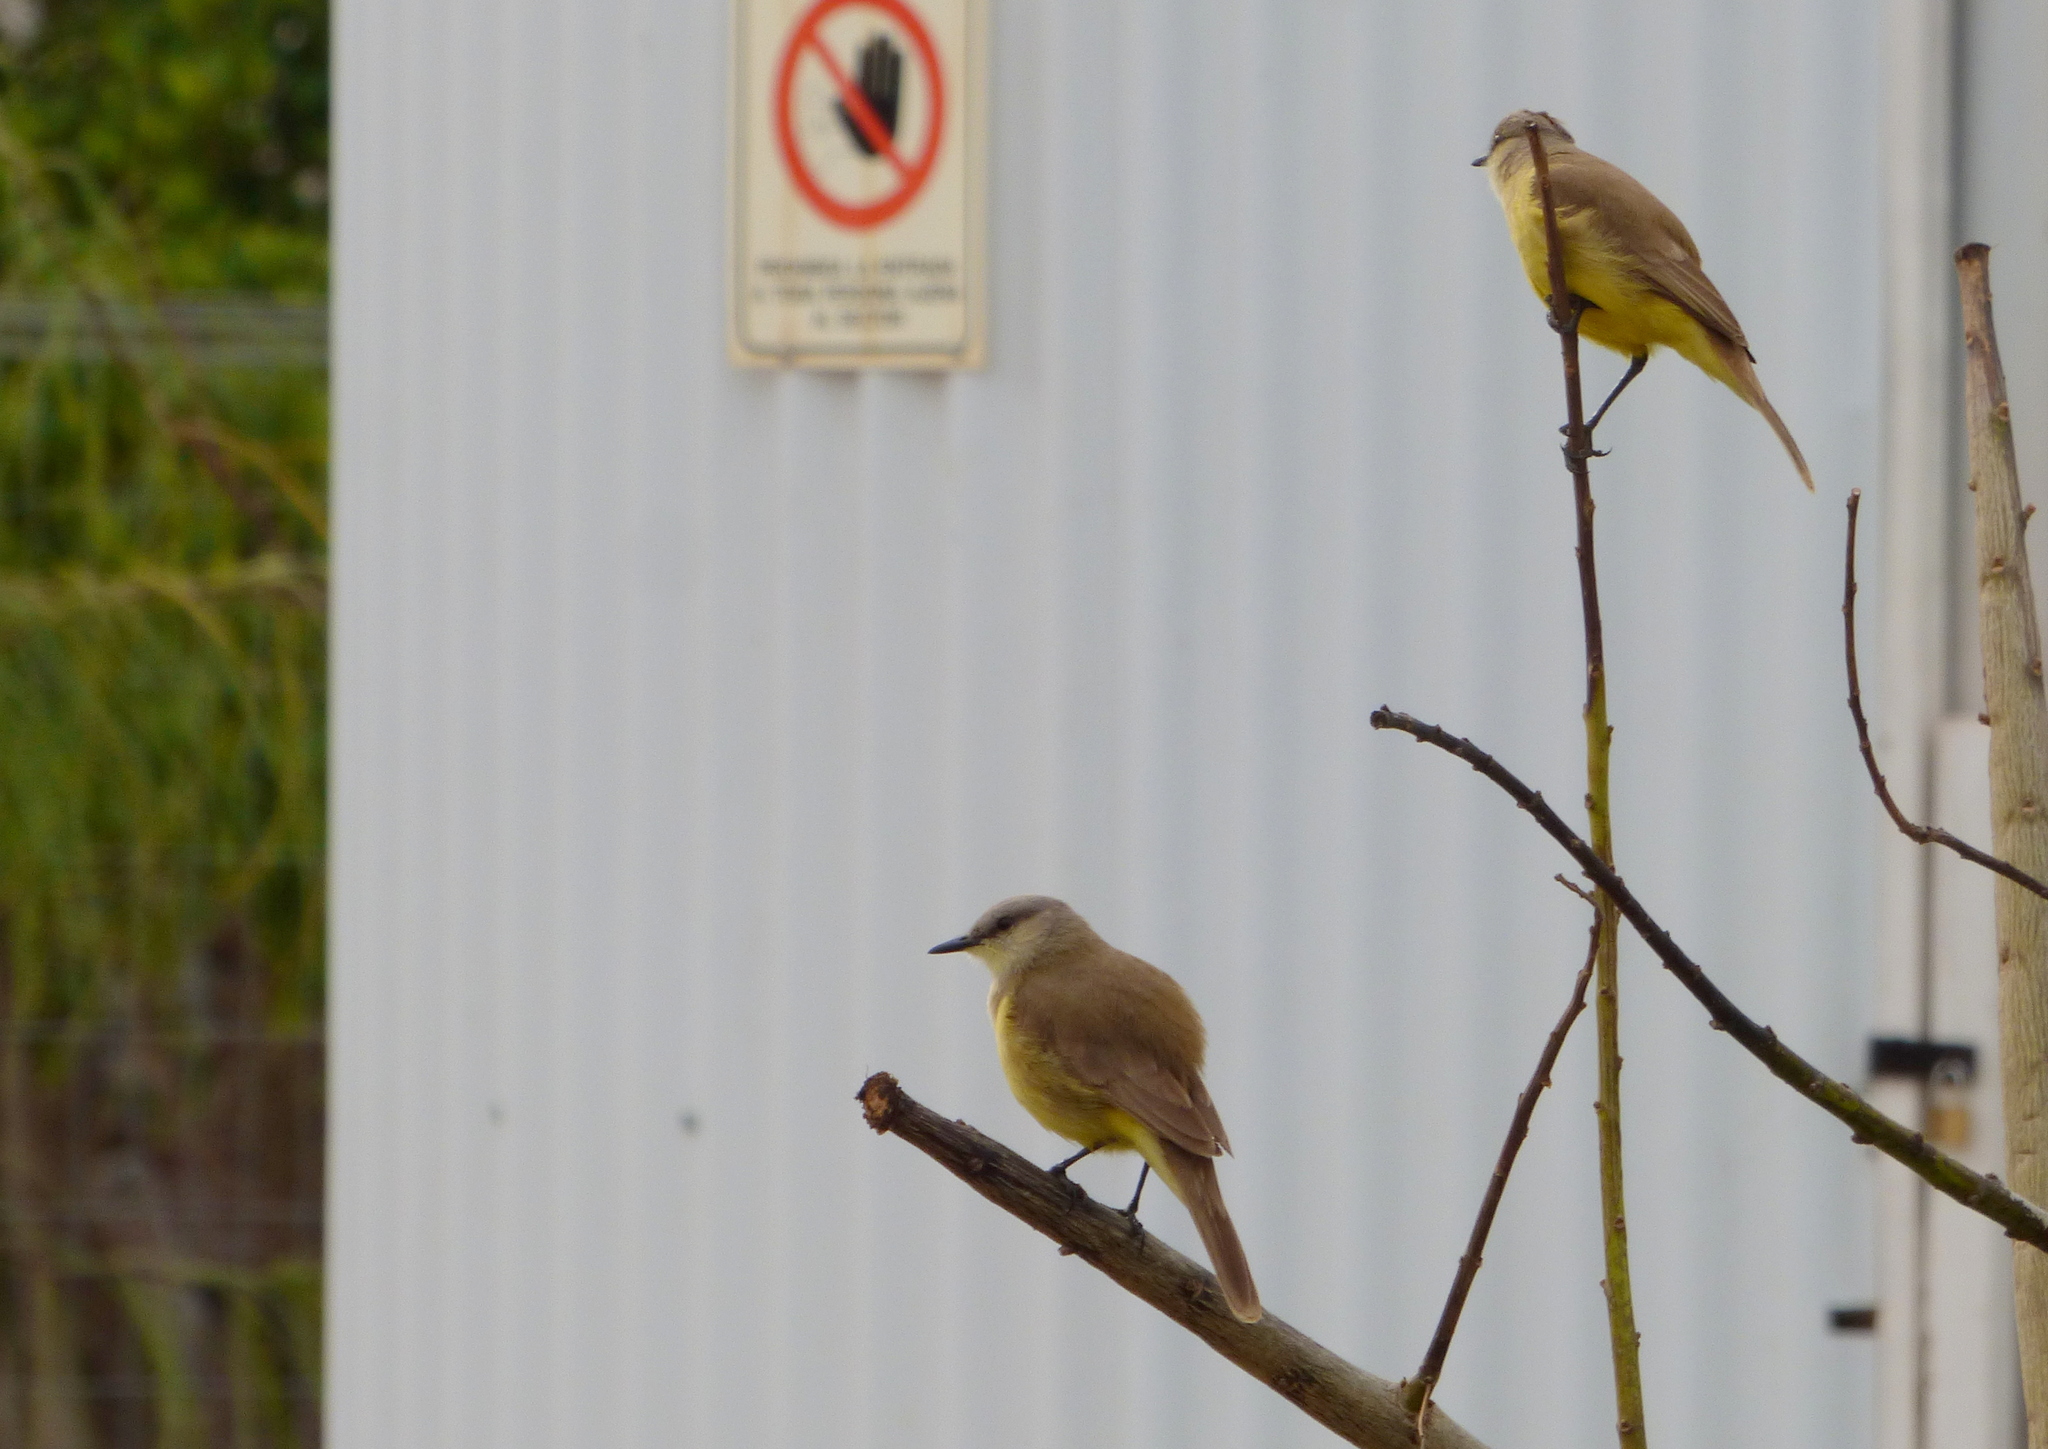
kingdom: Animalia
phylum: Chordata
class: Aves
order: Passeriformes
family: Tyrannidae
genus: Machetornis
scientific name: Machetornis rixosa
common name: Cattle tyrant
